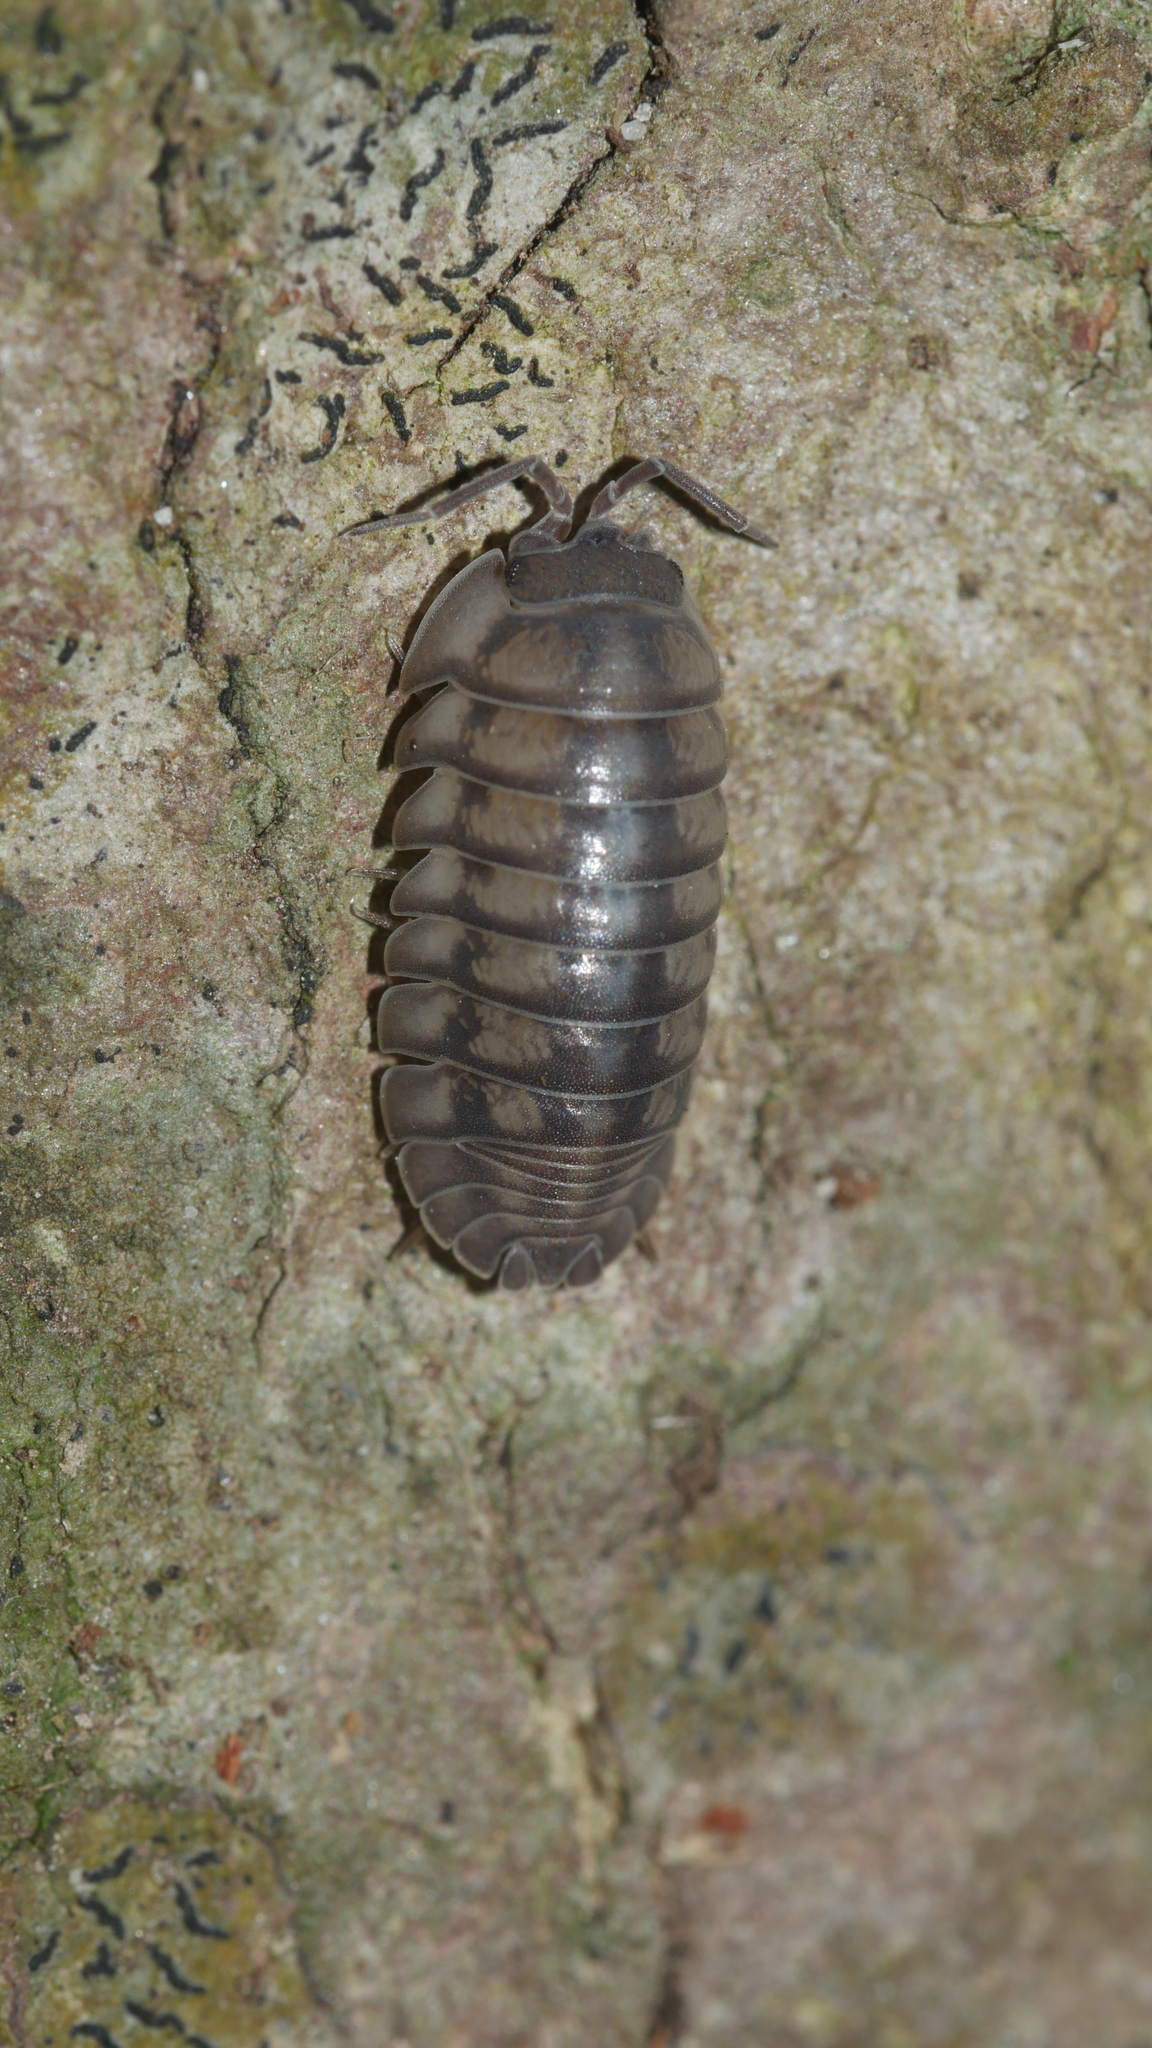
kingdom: Animalia
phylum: Arthropoda
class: Malacostraca
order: Isopoda
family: Armadillidiidae
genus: Armadillidium
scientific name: Armadillidium nasatum
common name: Isopod
